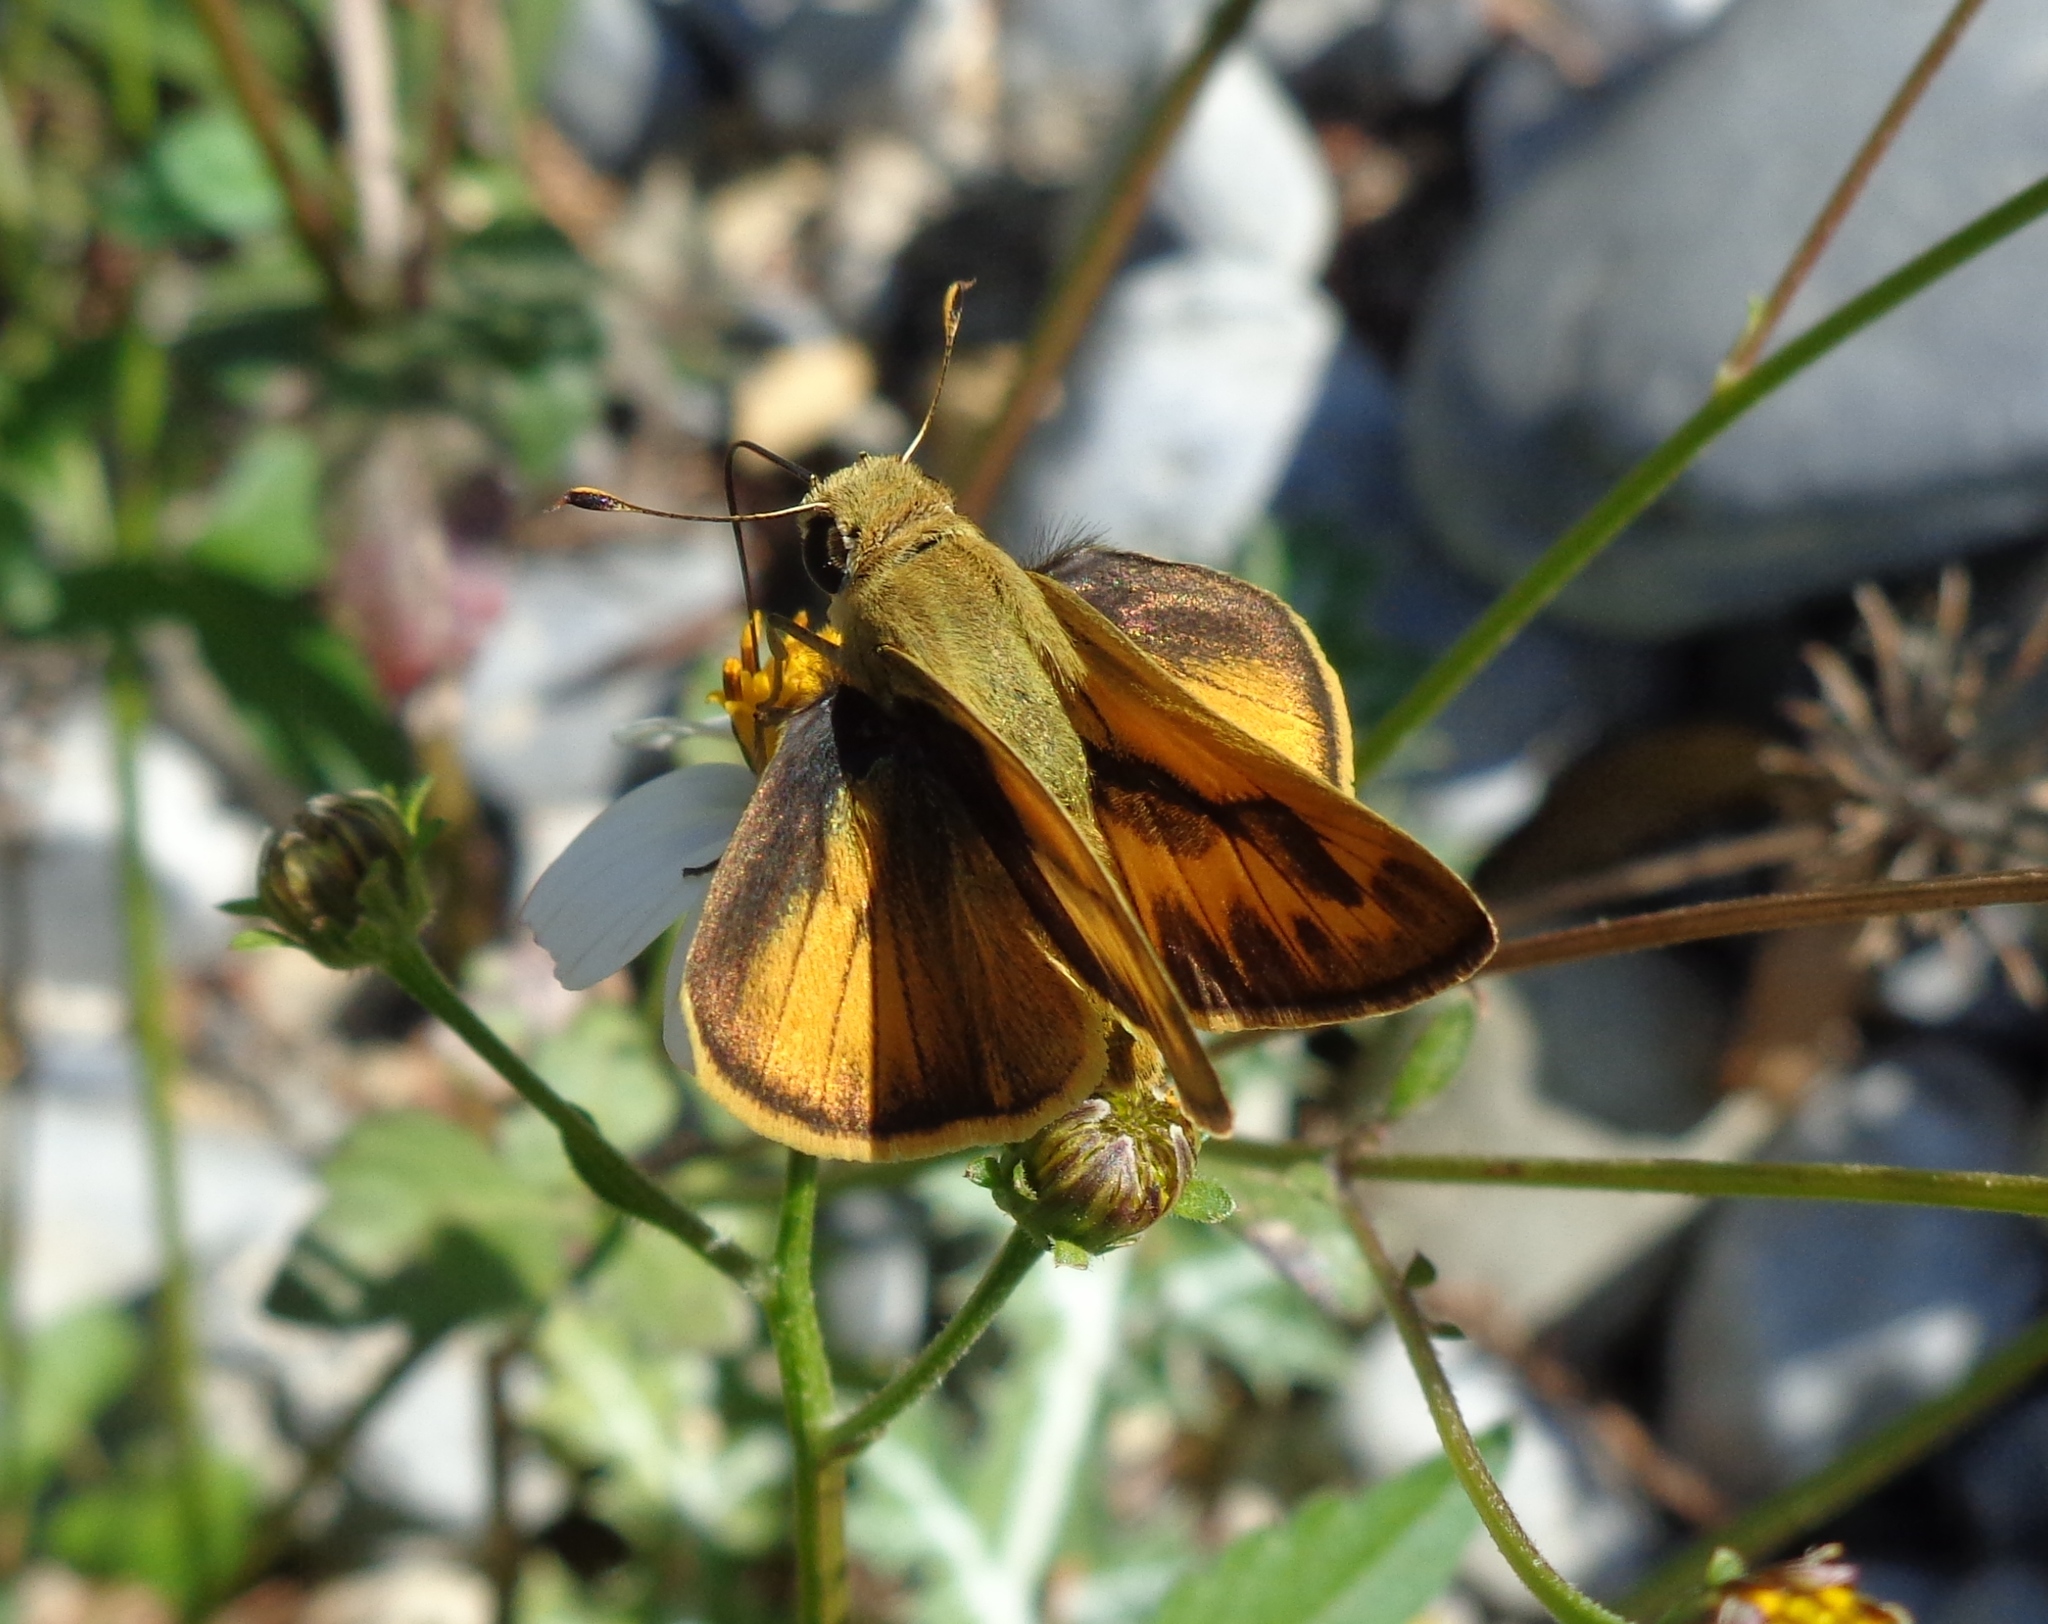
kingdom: Animalia
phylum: Arthropoda
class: Insecta
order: Lepidoptera
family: Hesperiidae
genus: Polites
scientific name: Polites vibex
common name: Whirlabout
